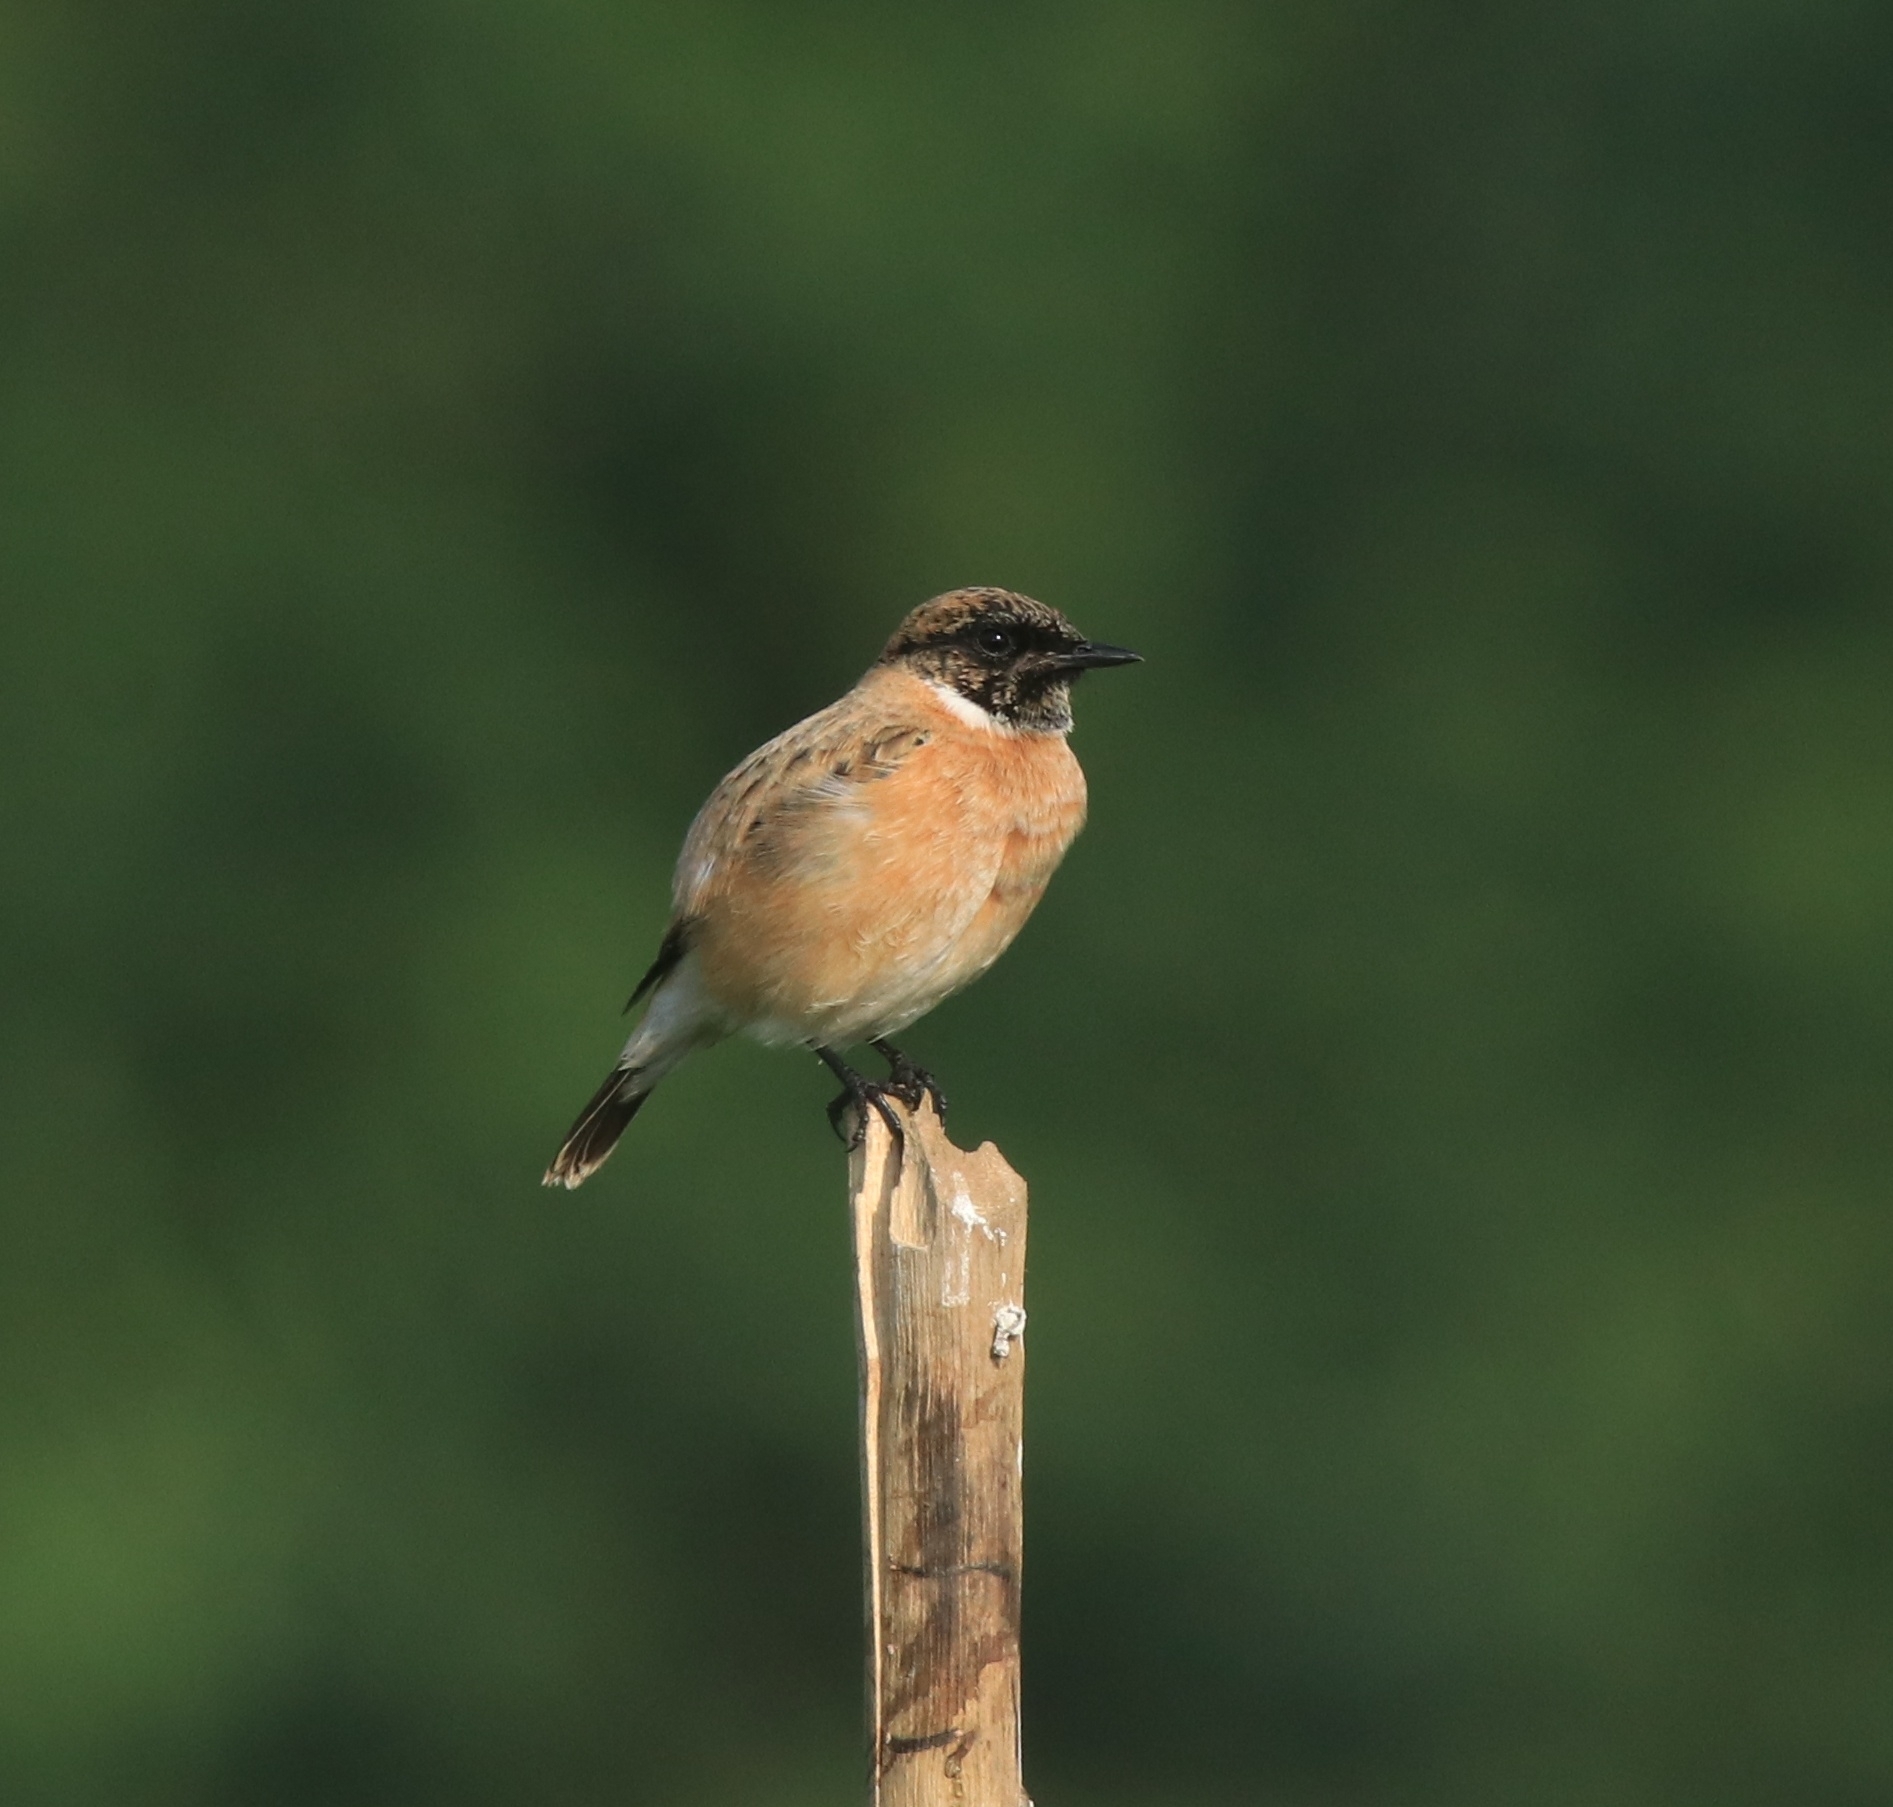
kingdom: Animalia
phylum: Chordata
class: Aves
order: Passeriformes
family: Muscicapidae
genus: Saxicola
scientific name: Saxicola maurus
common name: Siberian stonechat
